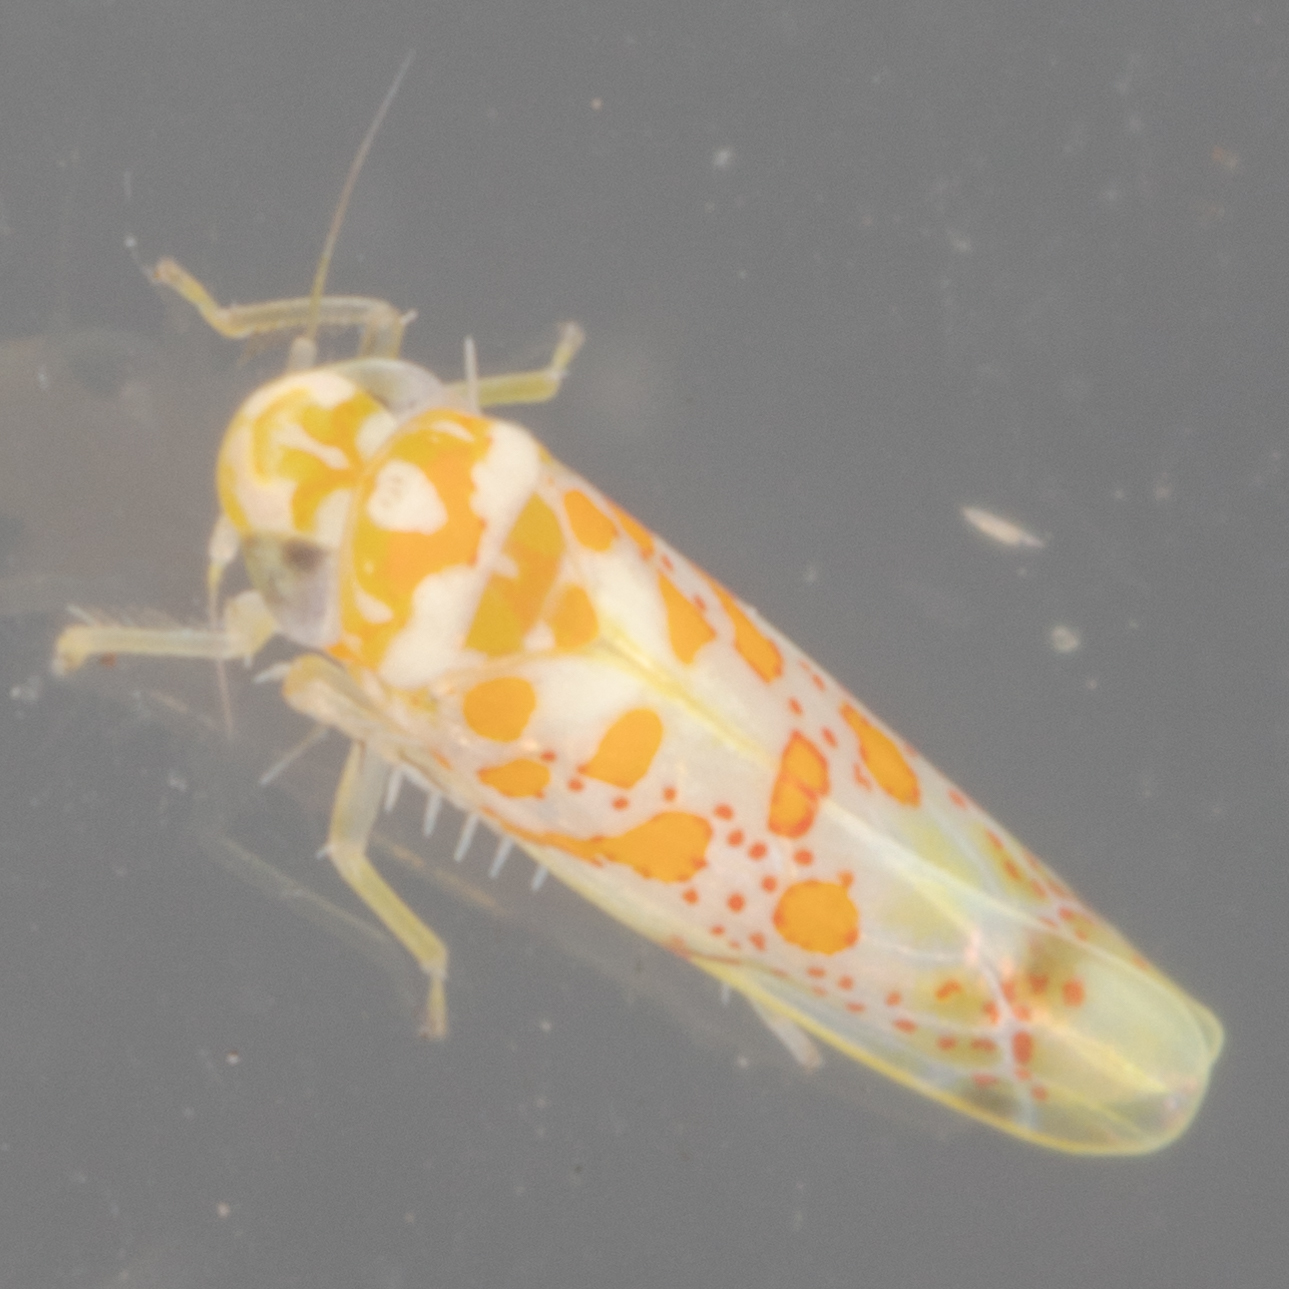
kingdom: Animalia
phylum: Arthropoda
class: Insecta
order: Hemiptera
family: Cicadellidae
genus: Dikrella
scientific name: Dikrella maculata
